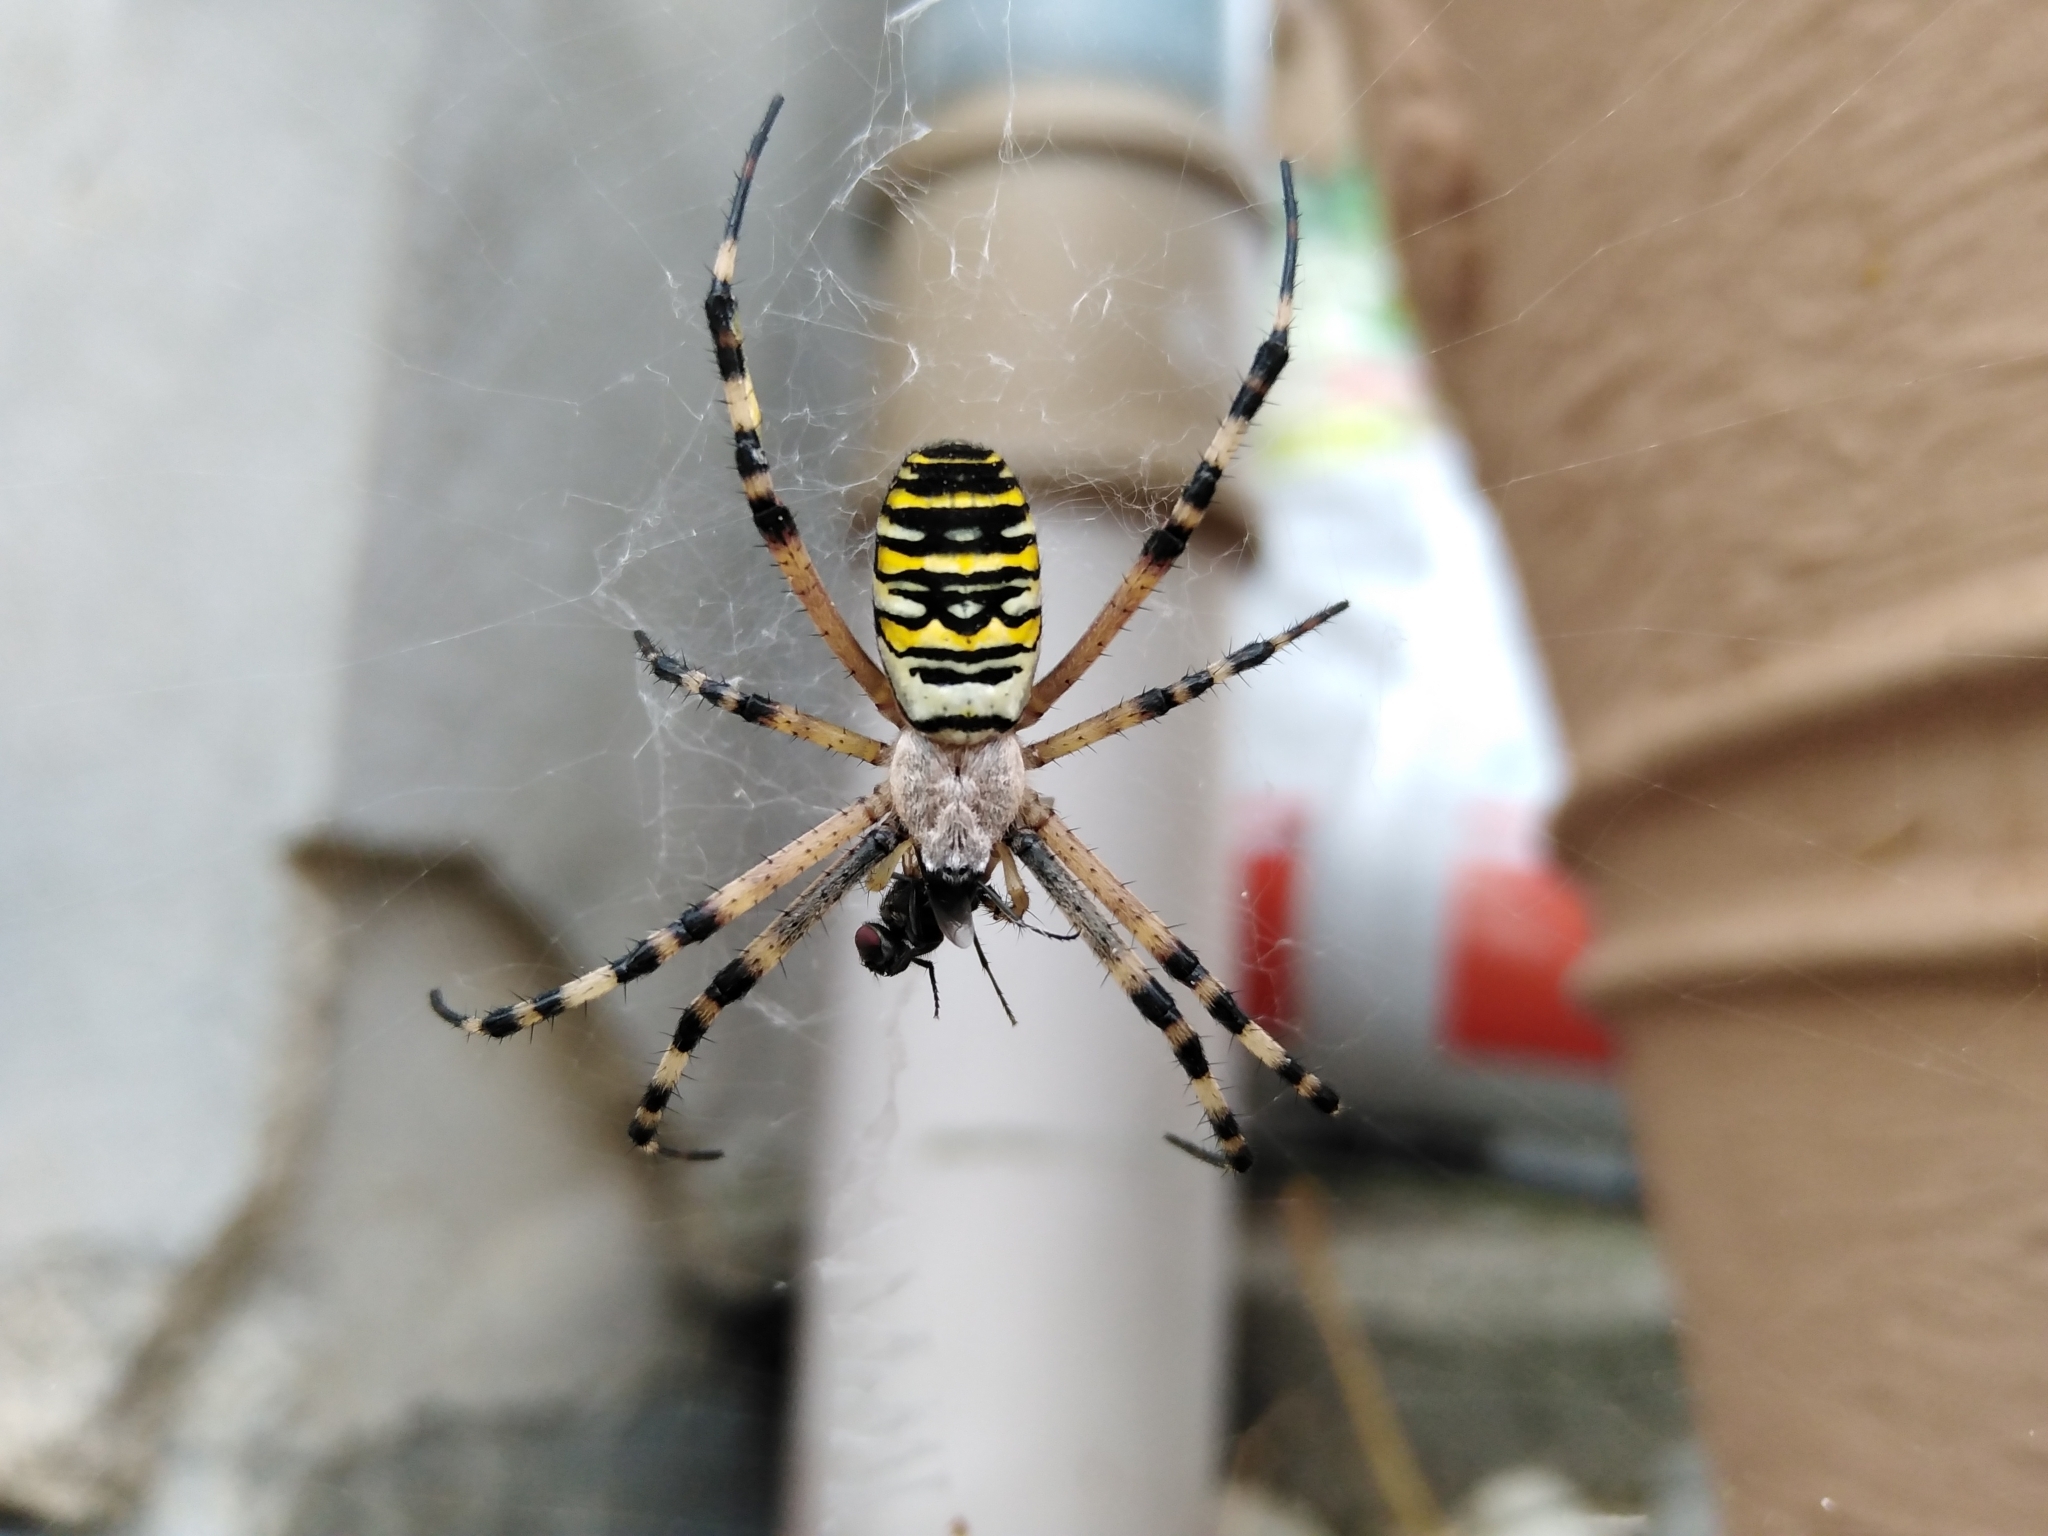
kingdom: Animalia
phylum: Arthropoda
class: Arachnida
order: Araneae
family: Araneidae
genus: Argiope
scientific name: Argiope bruennichi
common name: Wasp spider
